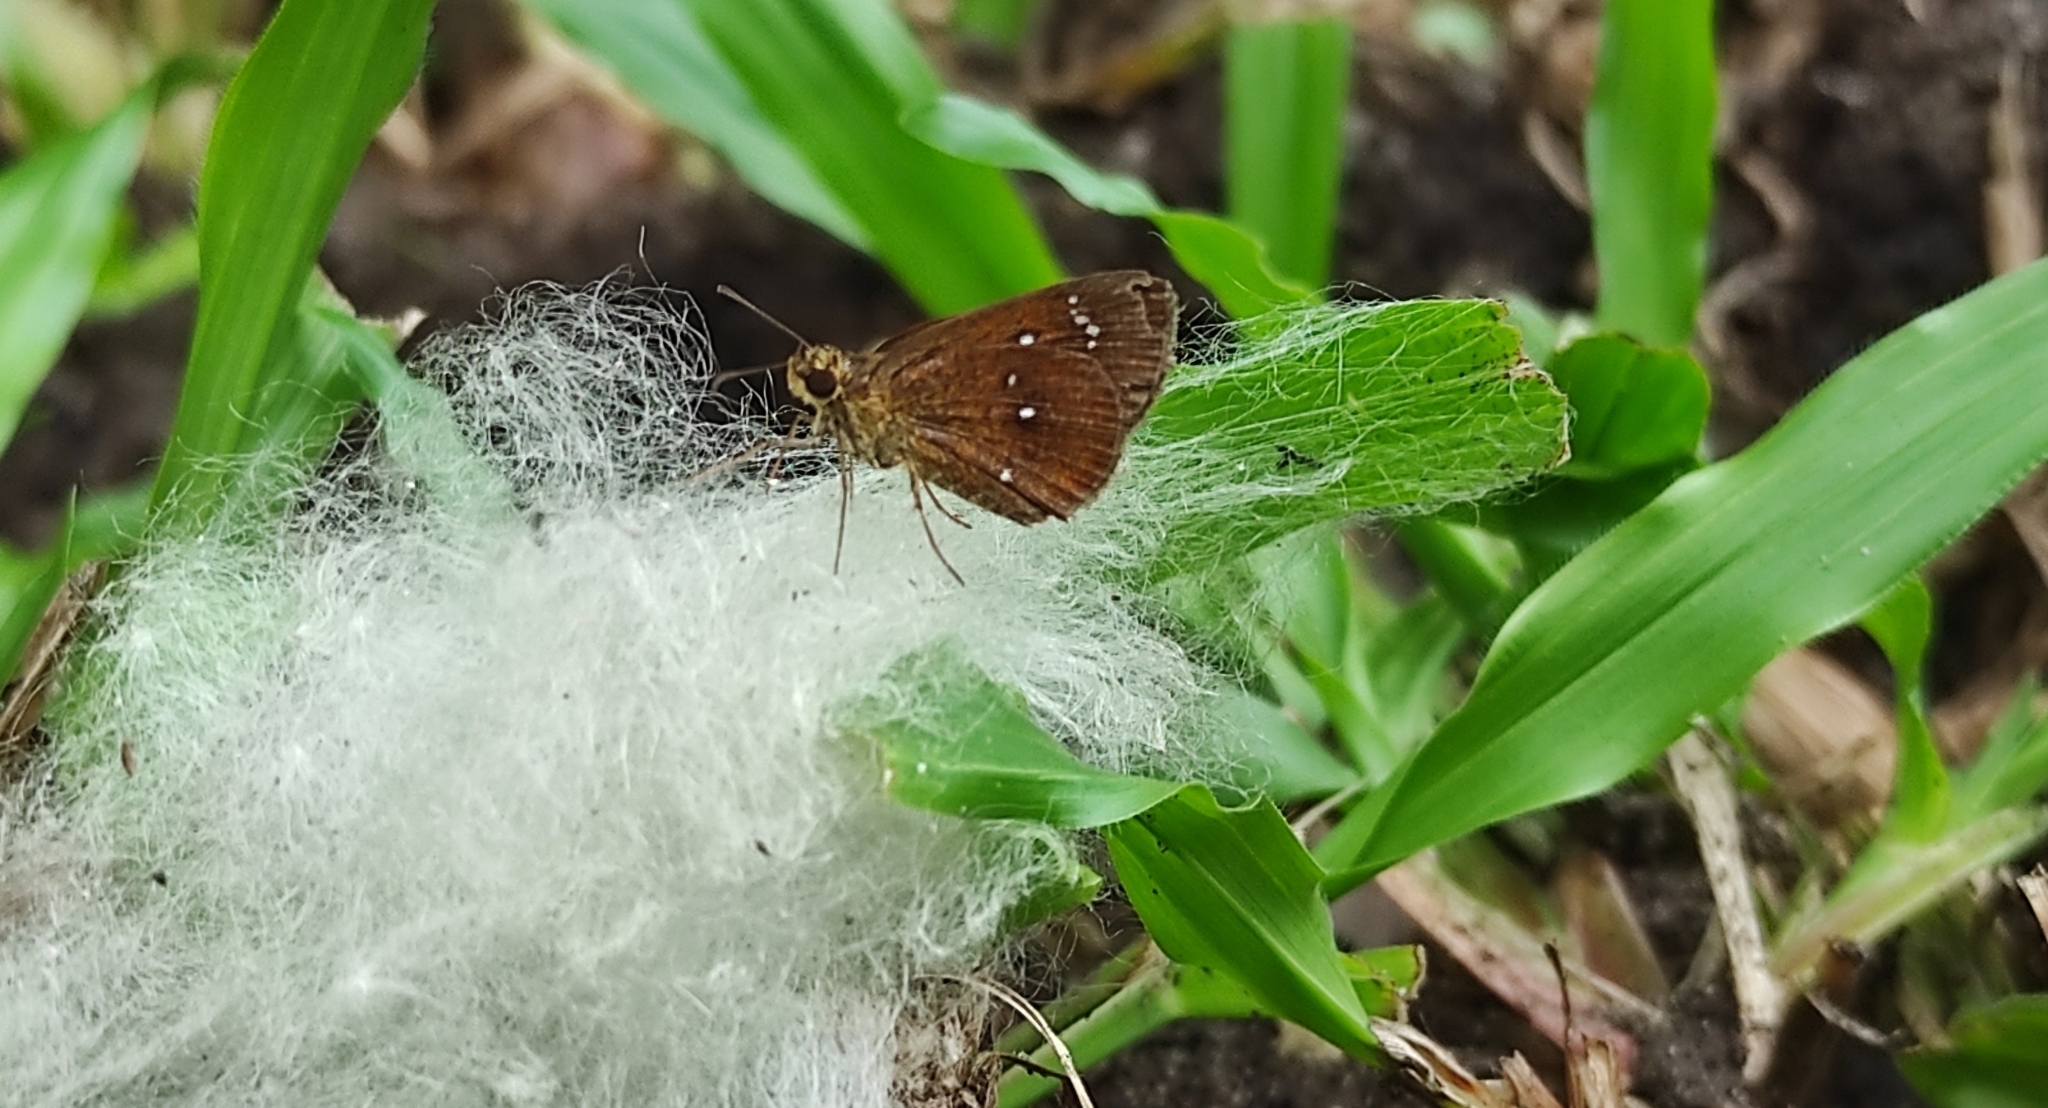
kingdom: Animalia
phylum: Arthropoda
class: Insecta
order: Lepidoptera
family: Hesperiidae
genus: Iambrix
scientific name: Iambrix salsala
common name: Chestnut bob
